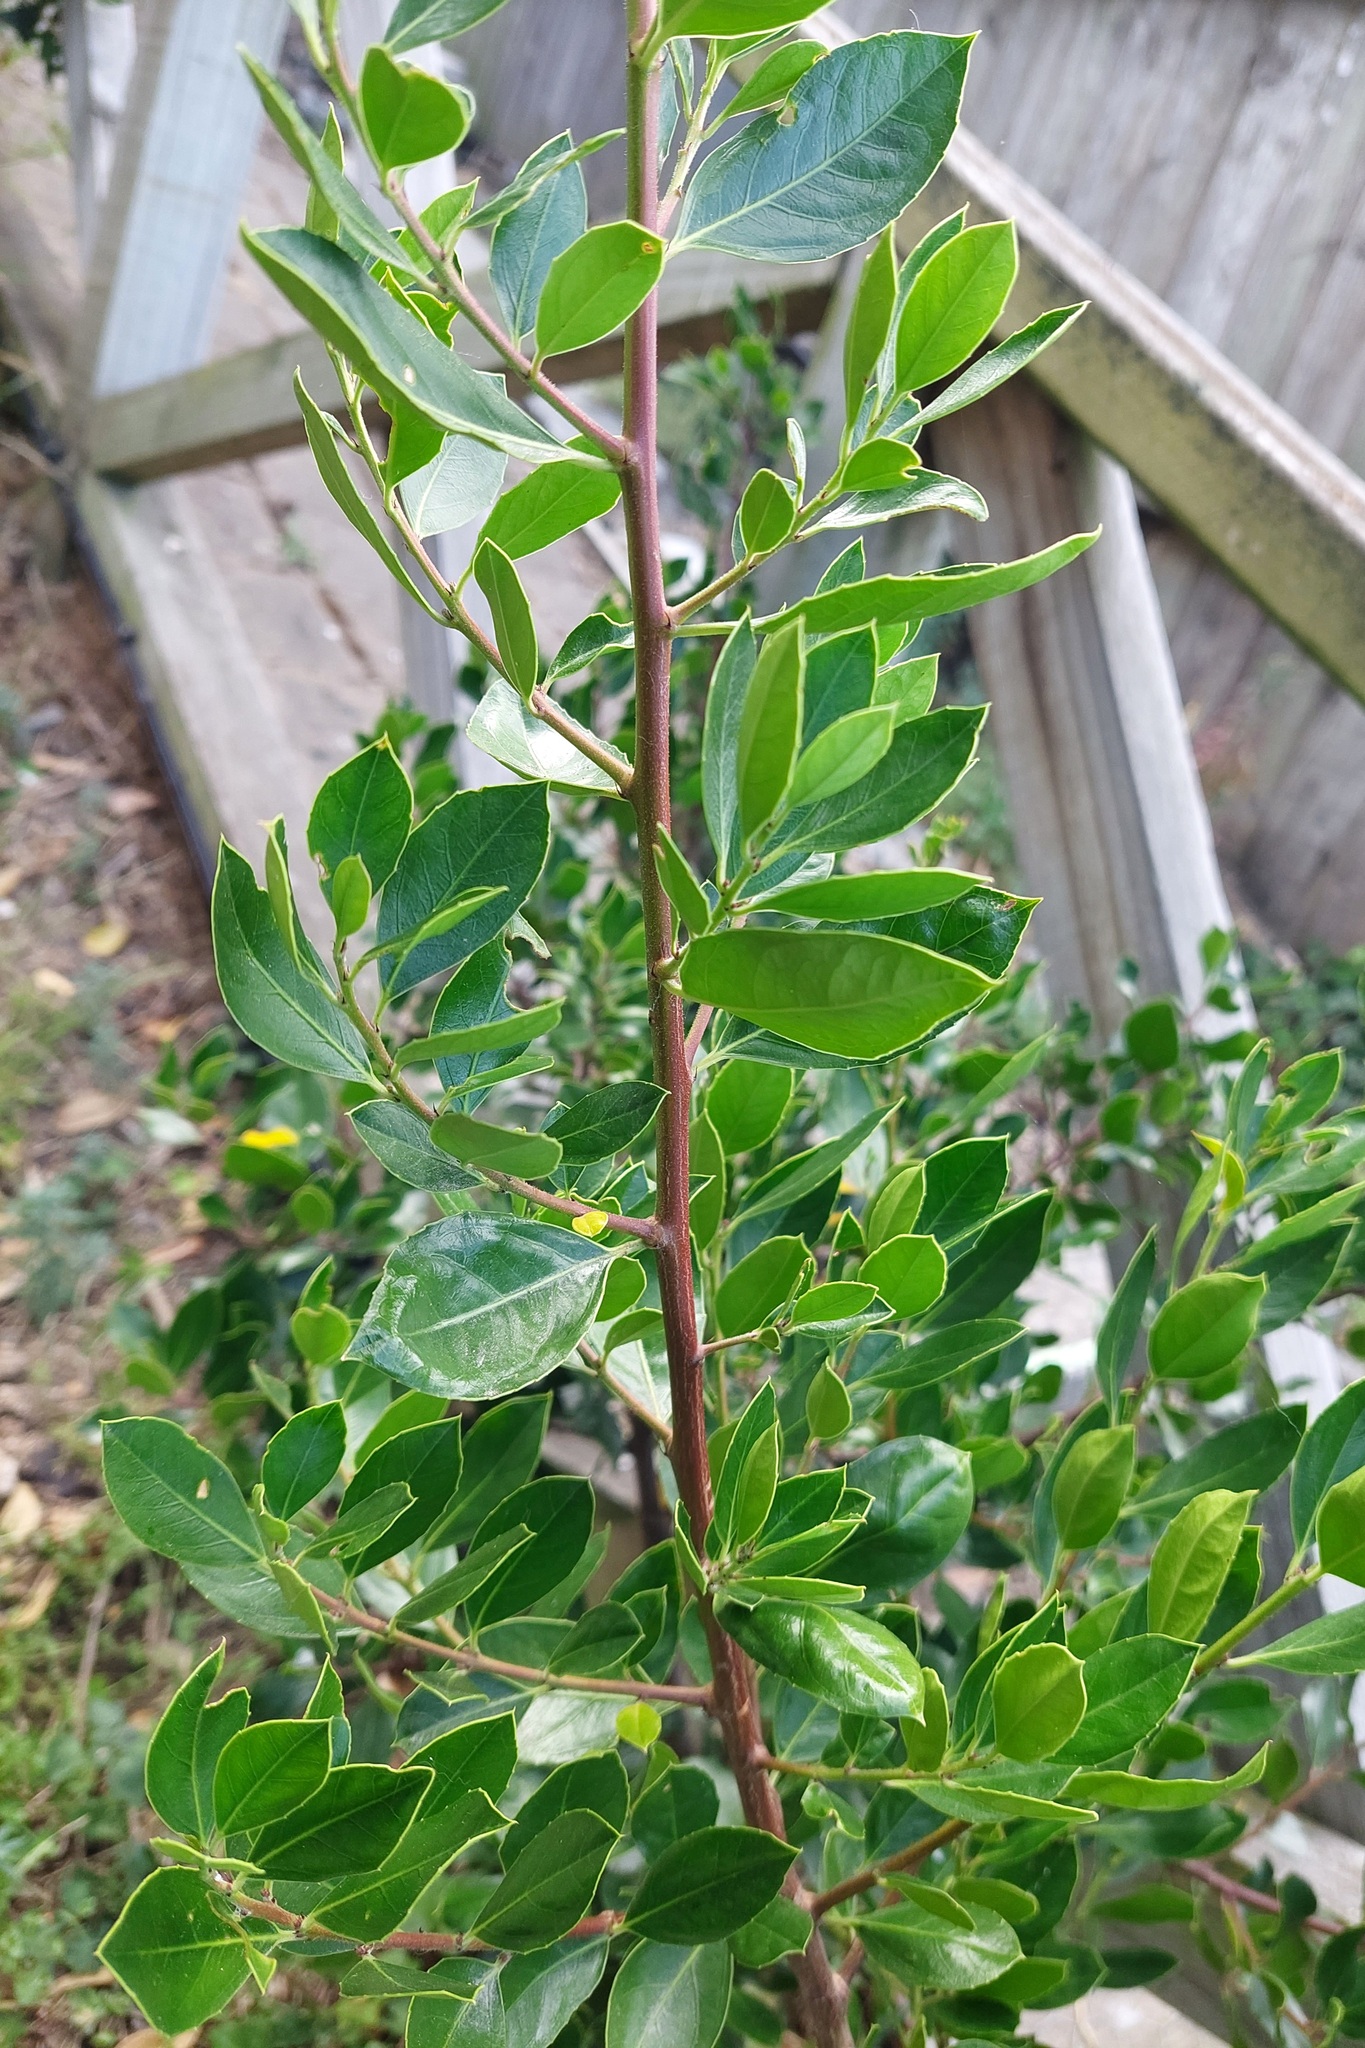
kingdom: Plantae
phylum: Tracheophyta
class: Magnoliopsida
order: Rosales
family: Rhamnaceae
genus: Rhamnus
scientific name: Rhamnus alaternus
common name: Mediterranean buckthorn
